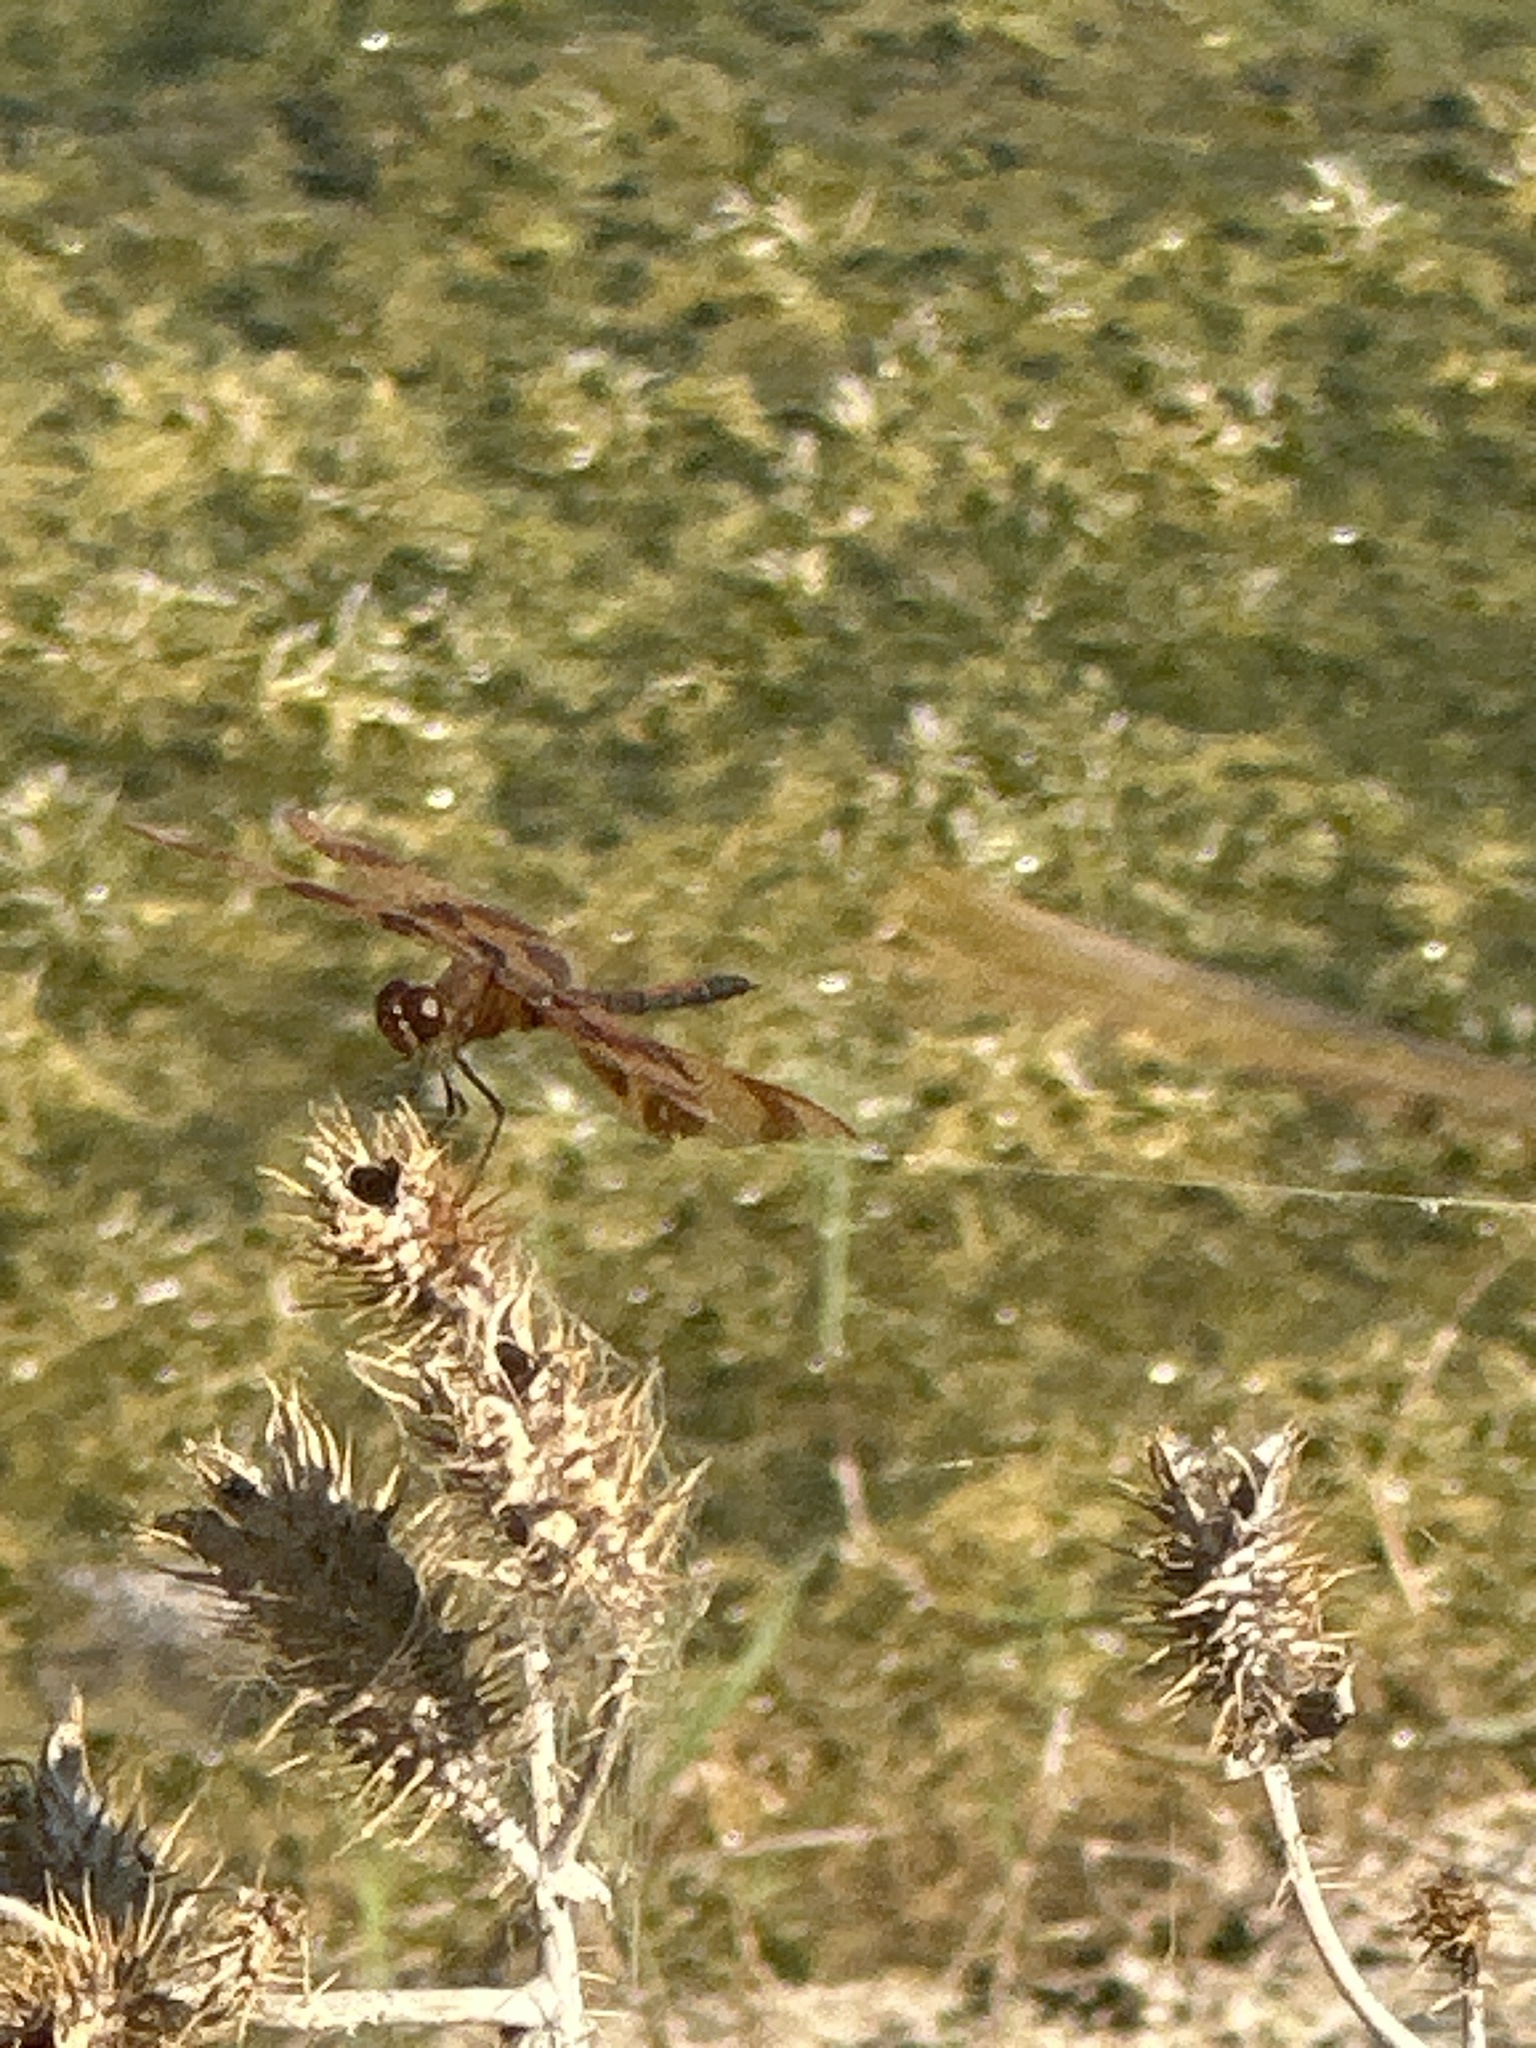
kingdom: Animalia
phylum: Arthropoda
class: Insecta
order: Odonata
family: Libellulidae
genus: Celithemis
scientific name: Celithemis eponina
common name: Halloween pennant
